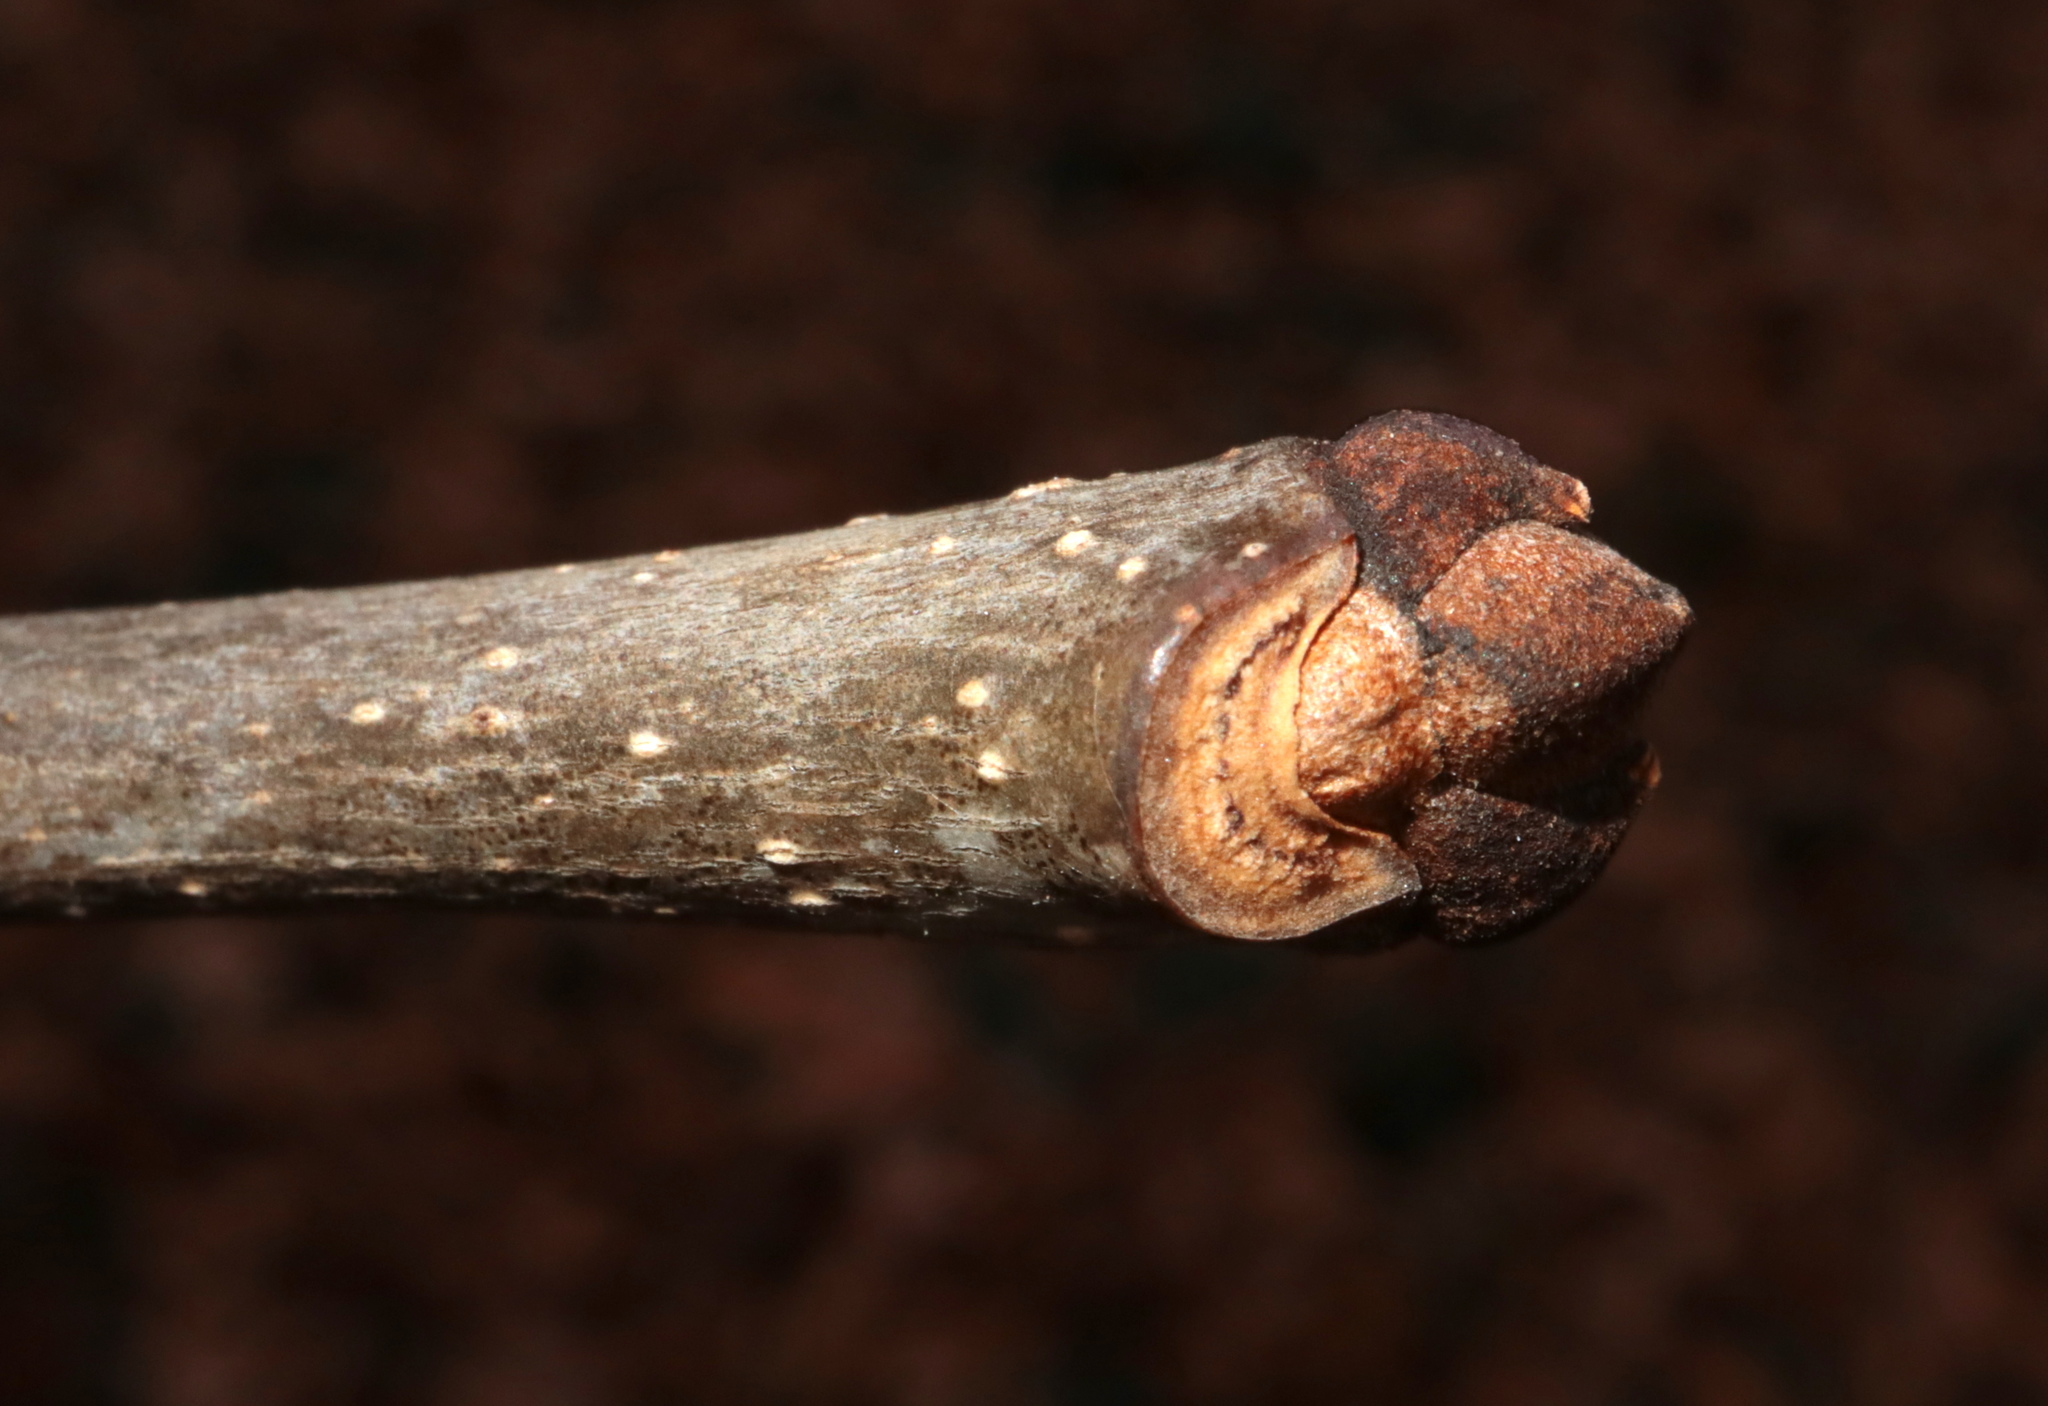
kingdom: Plantae
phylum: Tracheophyta
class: Magnoliopsida
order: Lamiales
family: Oleaceae
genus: Fraxinus
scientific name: Fraxinus americana
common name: White ash
